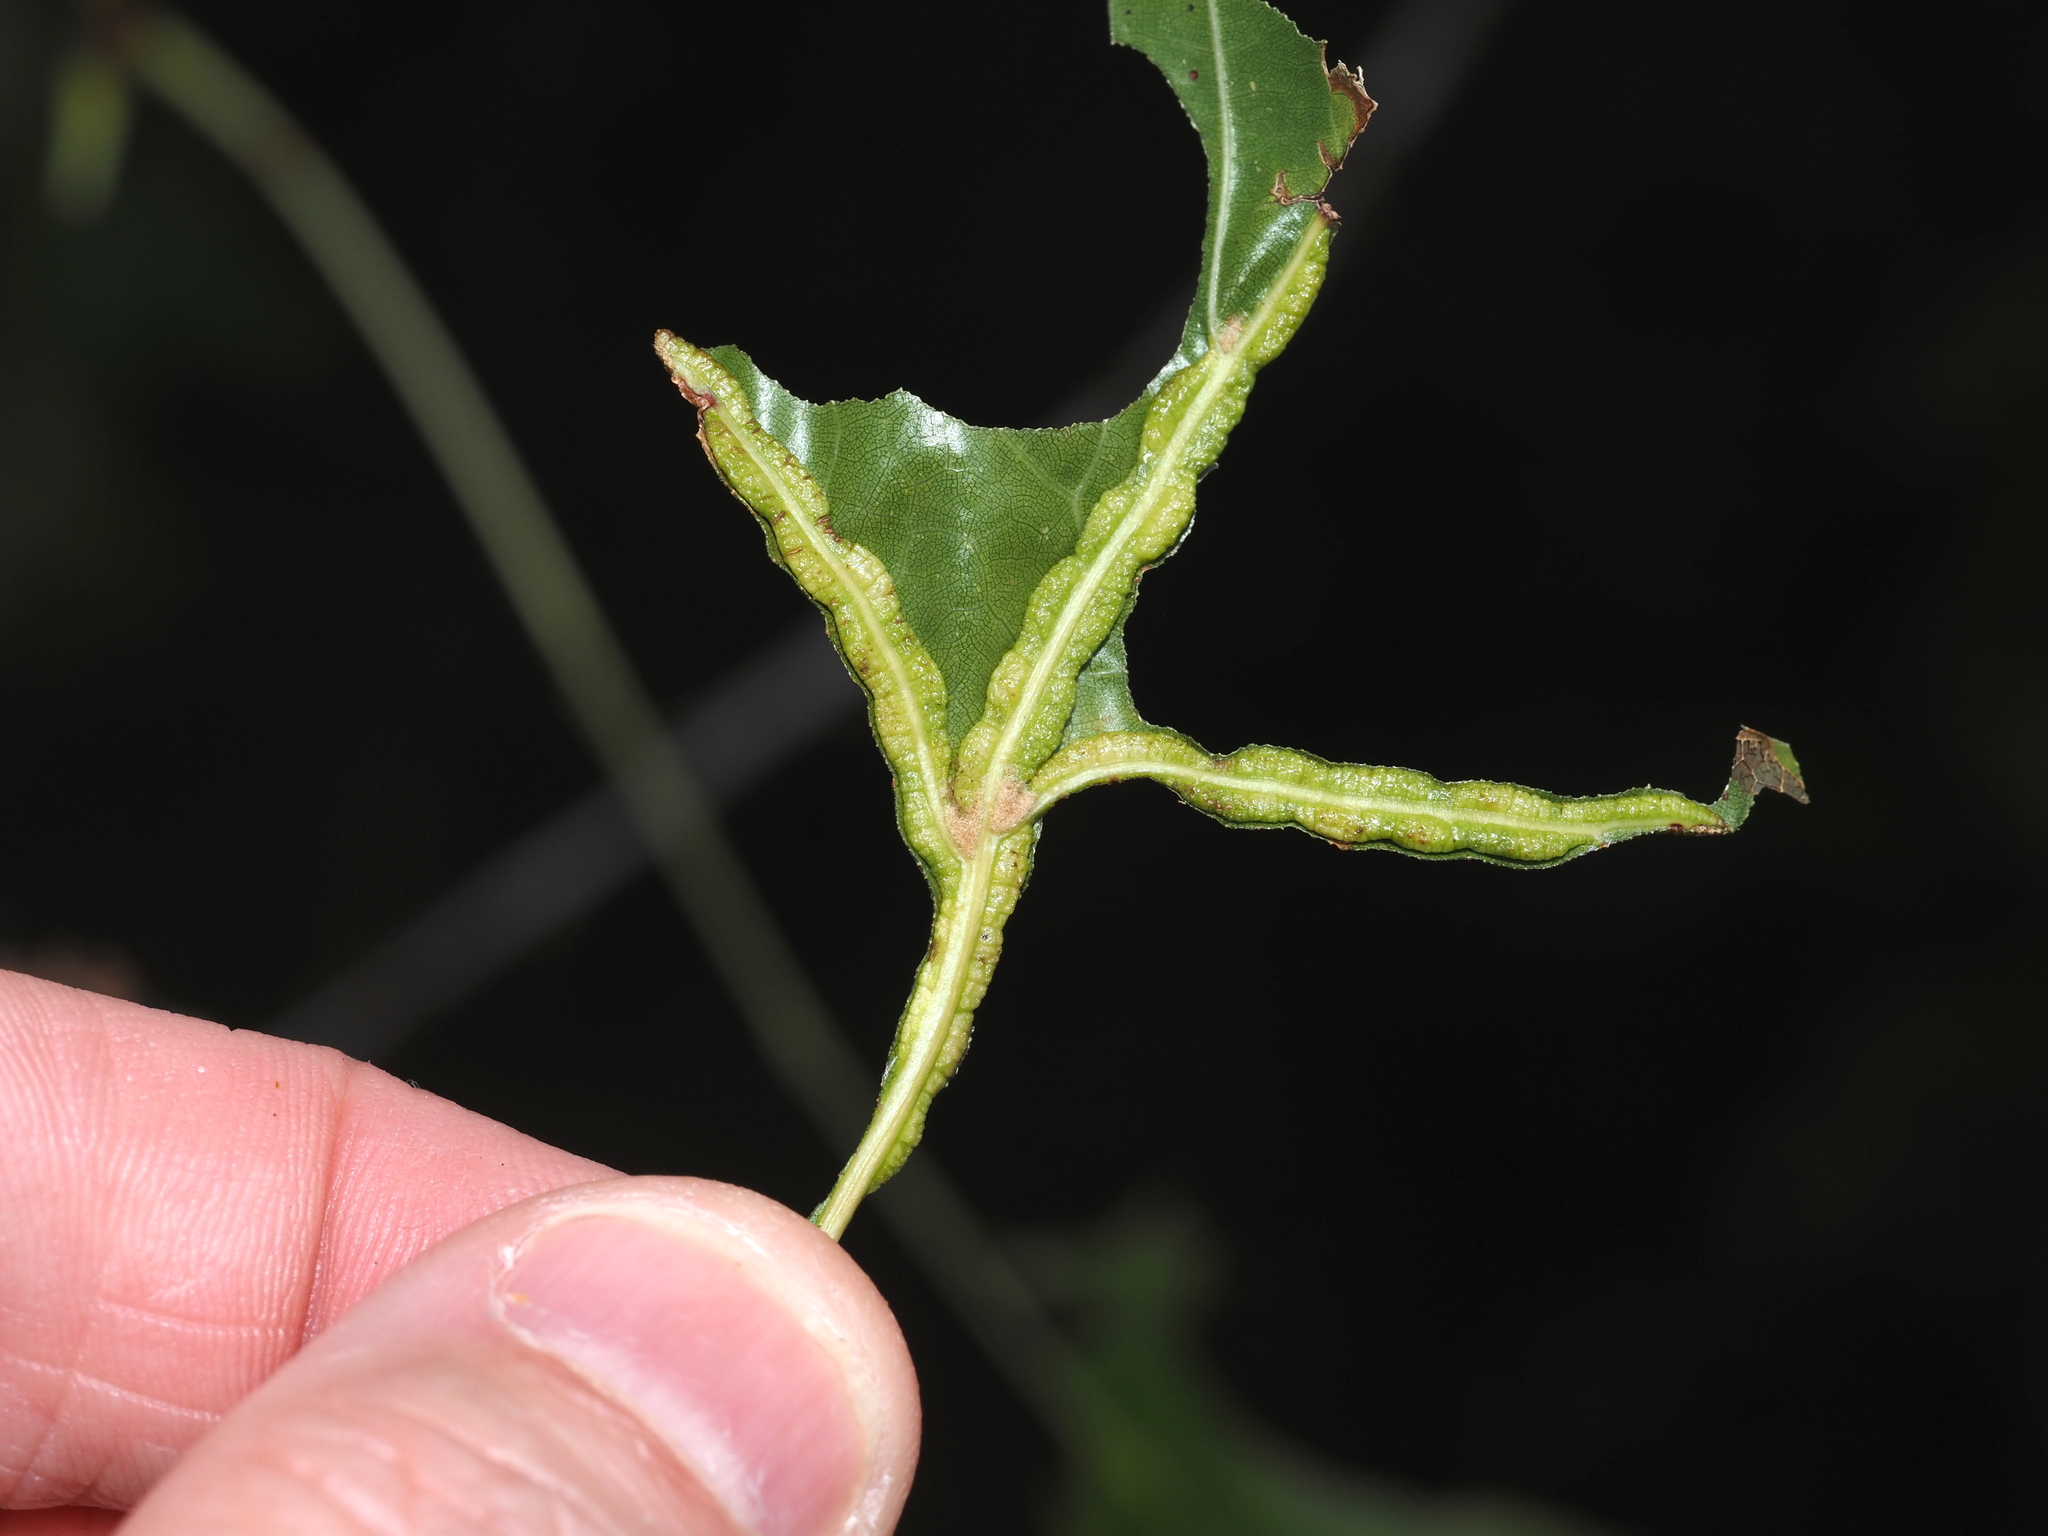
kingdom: Animalia
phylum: Arthropoda
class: Insecta
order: Diptera
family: Cecidomyiidae
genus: Macrodiplosis
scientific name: Macrodiplosis q-orucum
